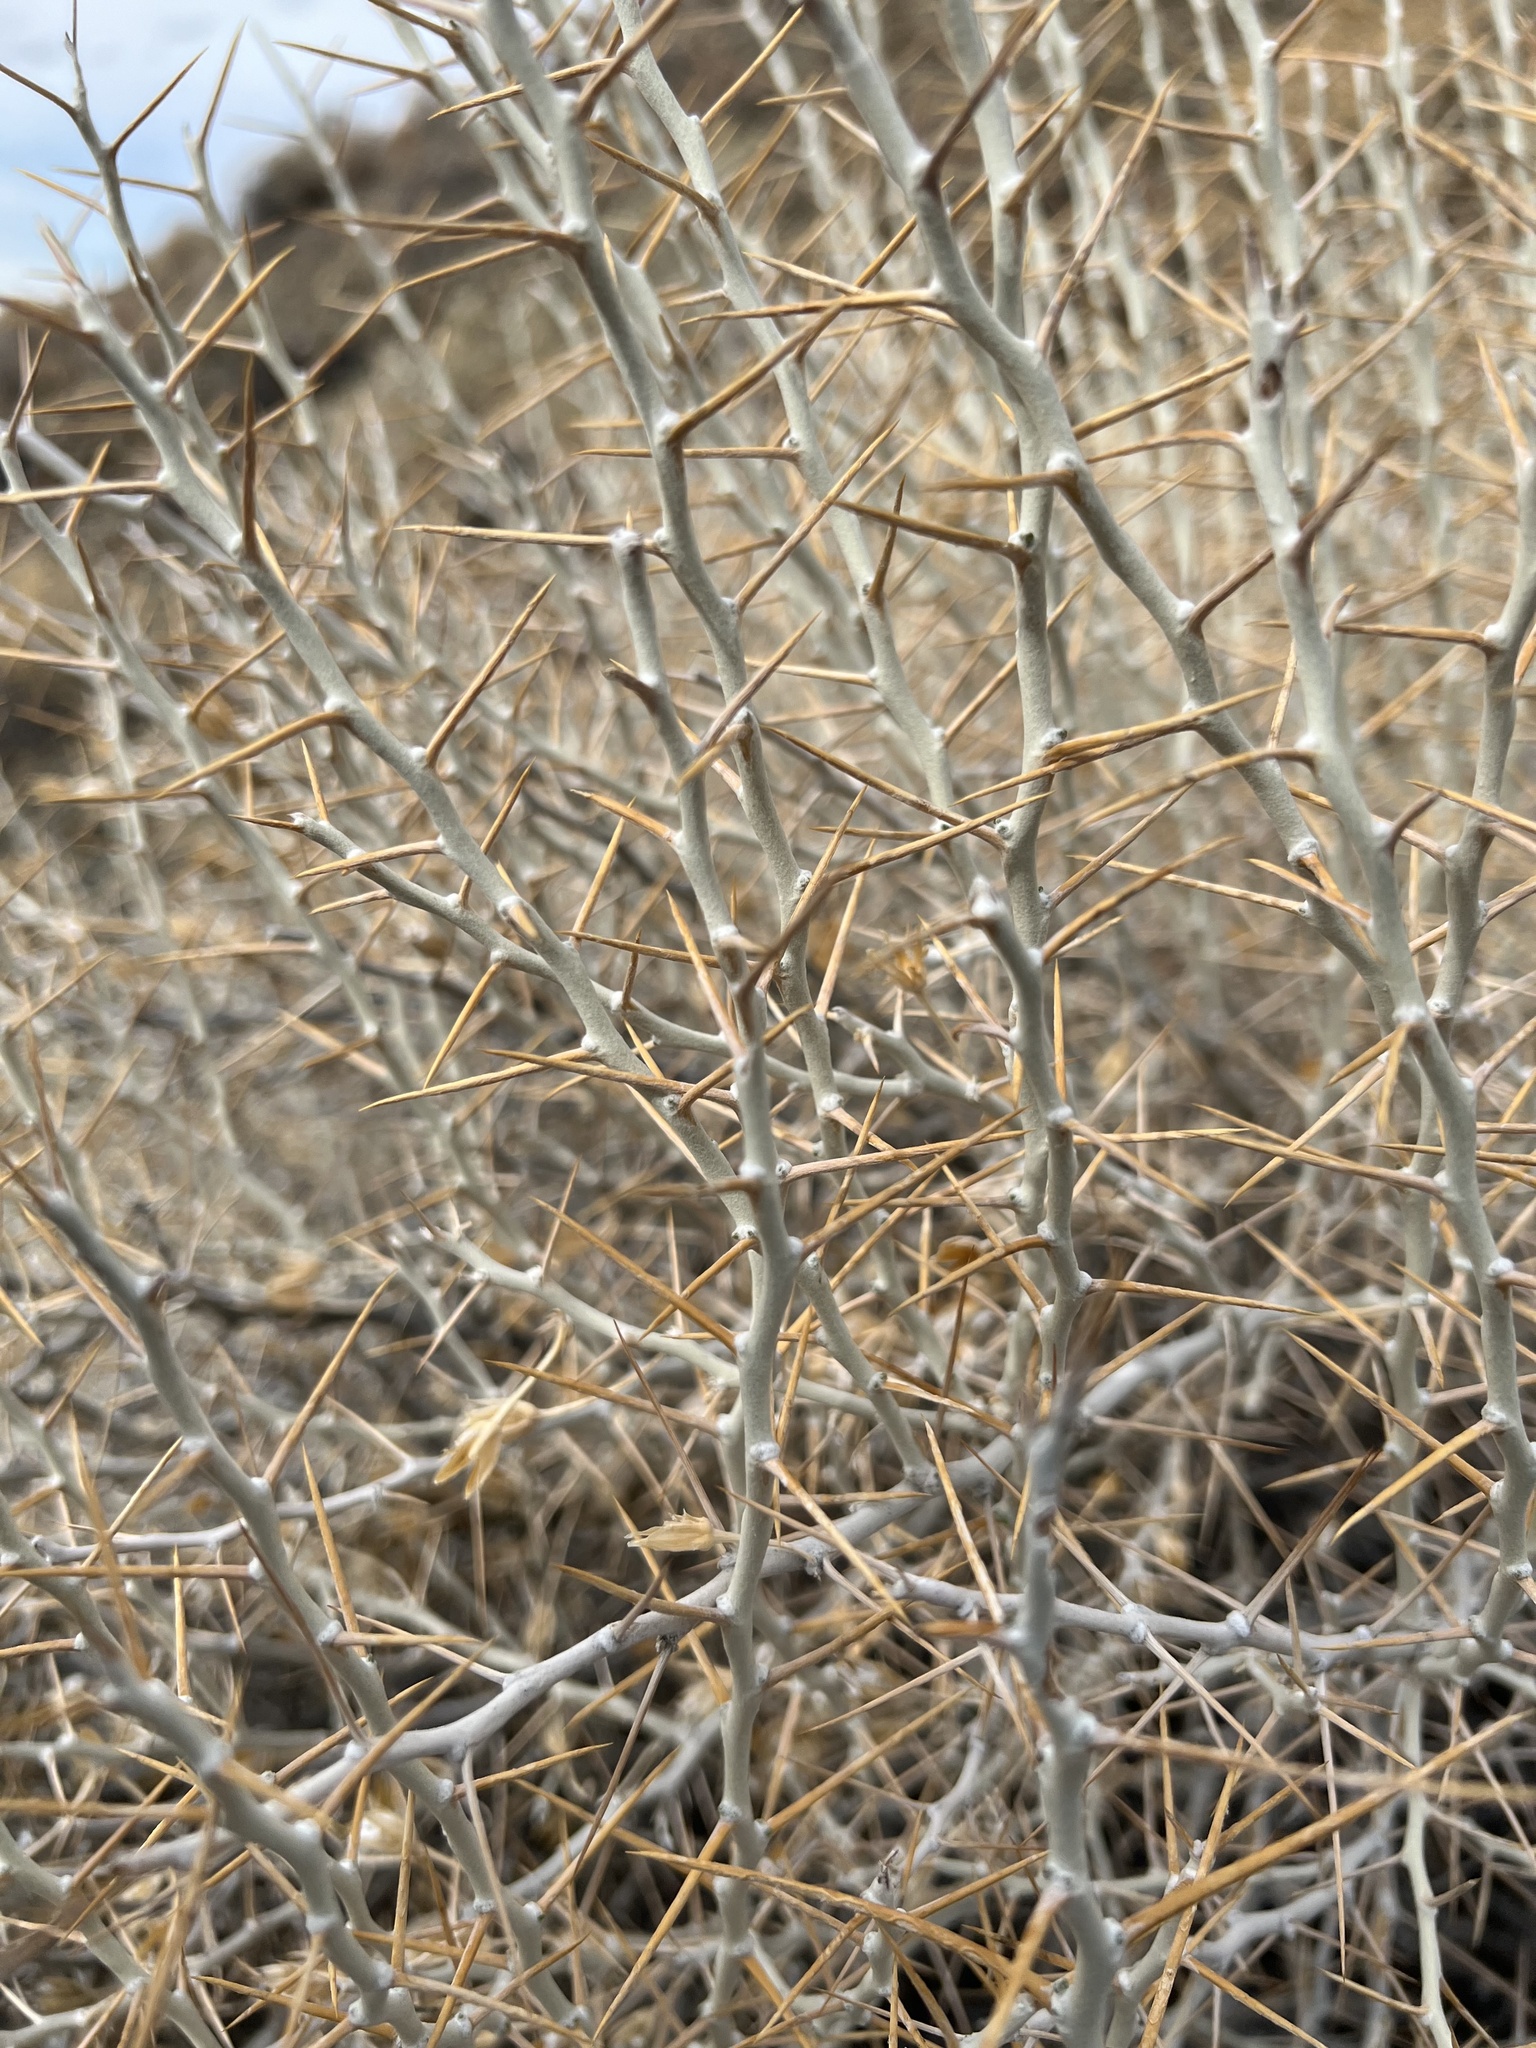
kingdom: Plantae
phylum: Tracheophyta
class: Magnoliopsida
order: Asterales
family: Asteraceae
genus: Tetradymia
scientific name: Tetradymia axillaris
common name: Long-spine horsebrush
